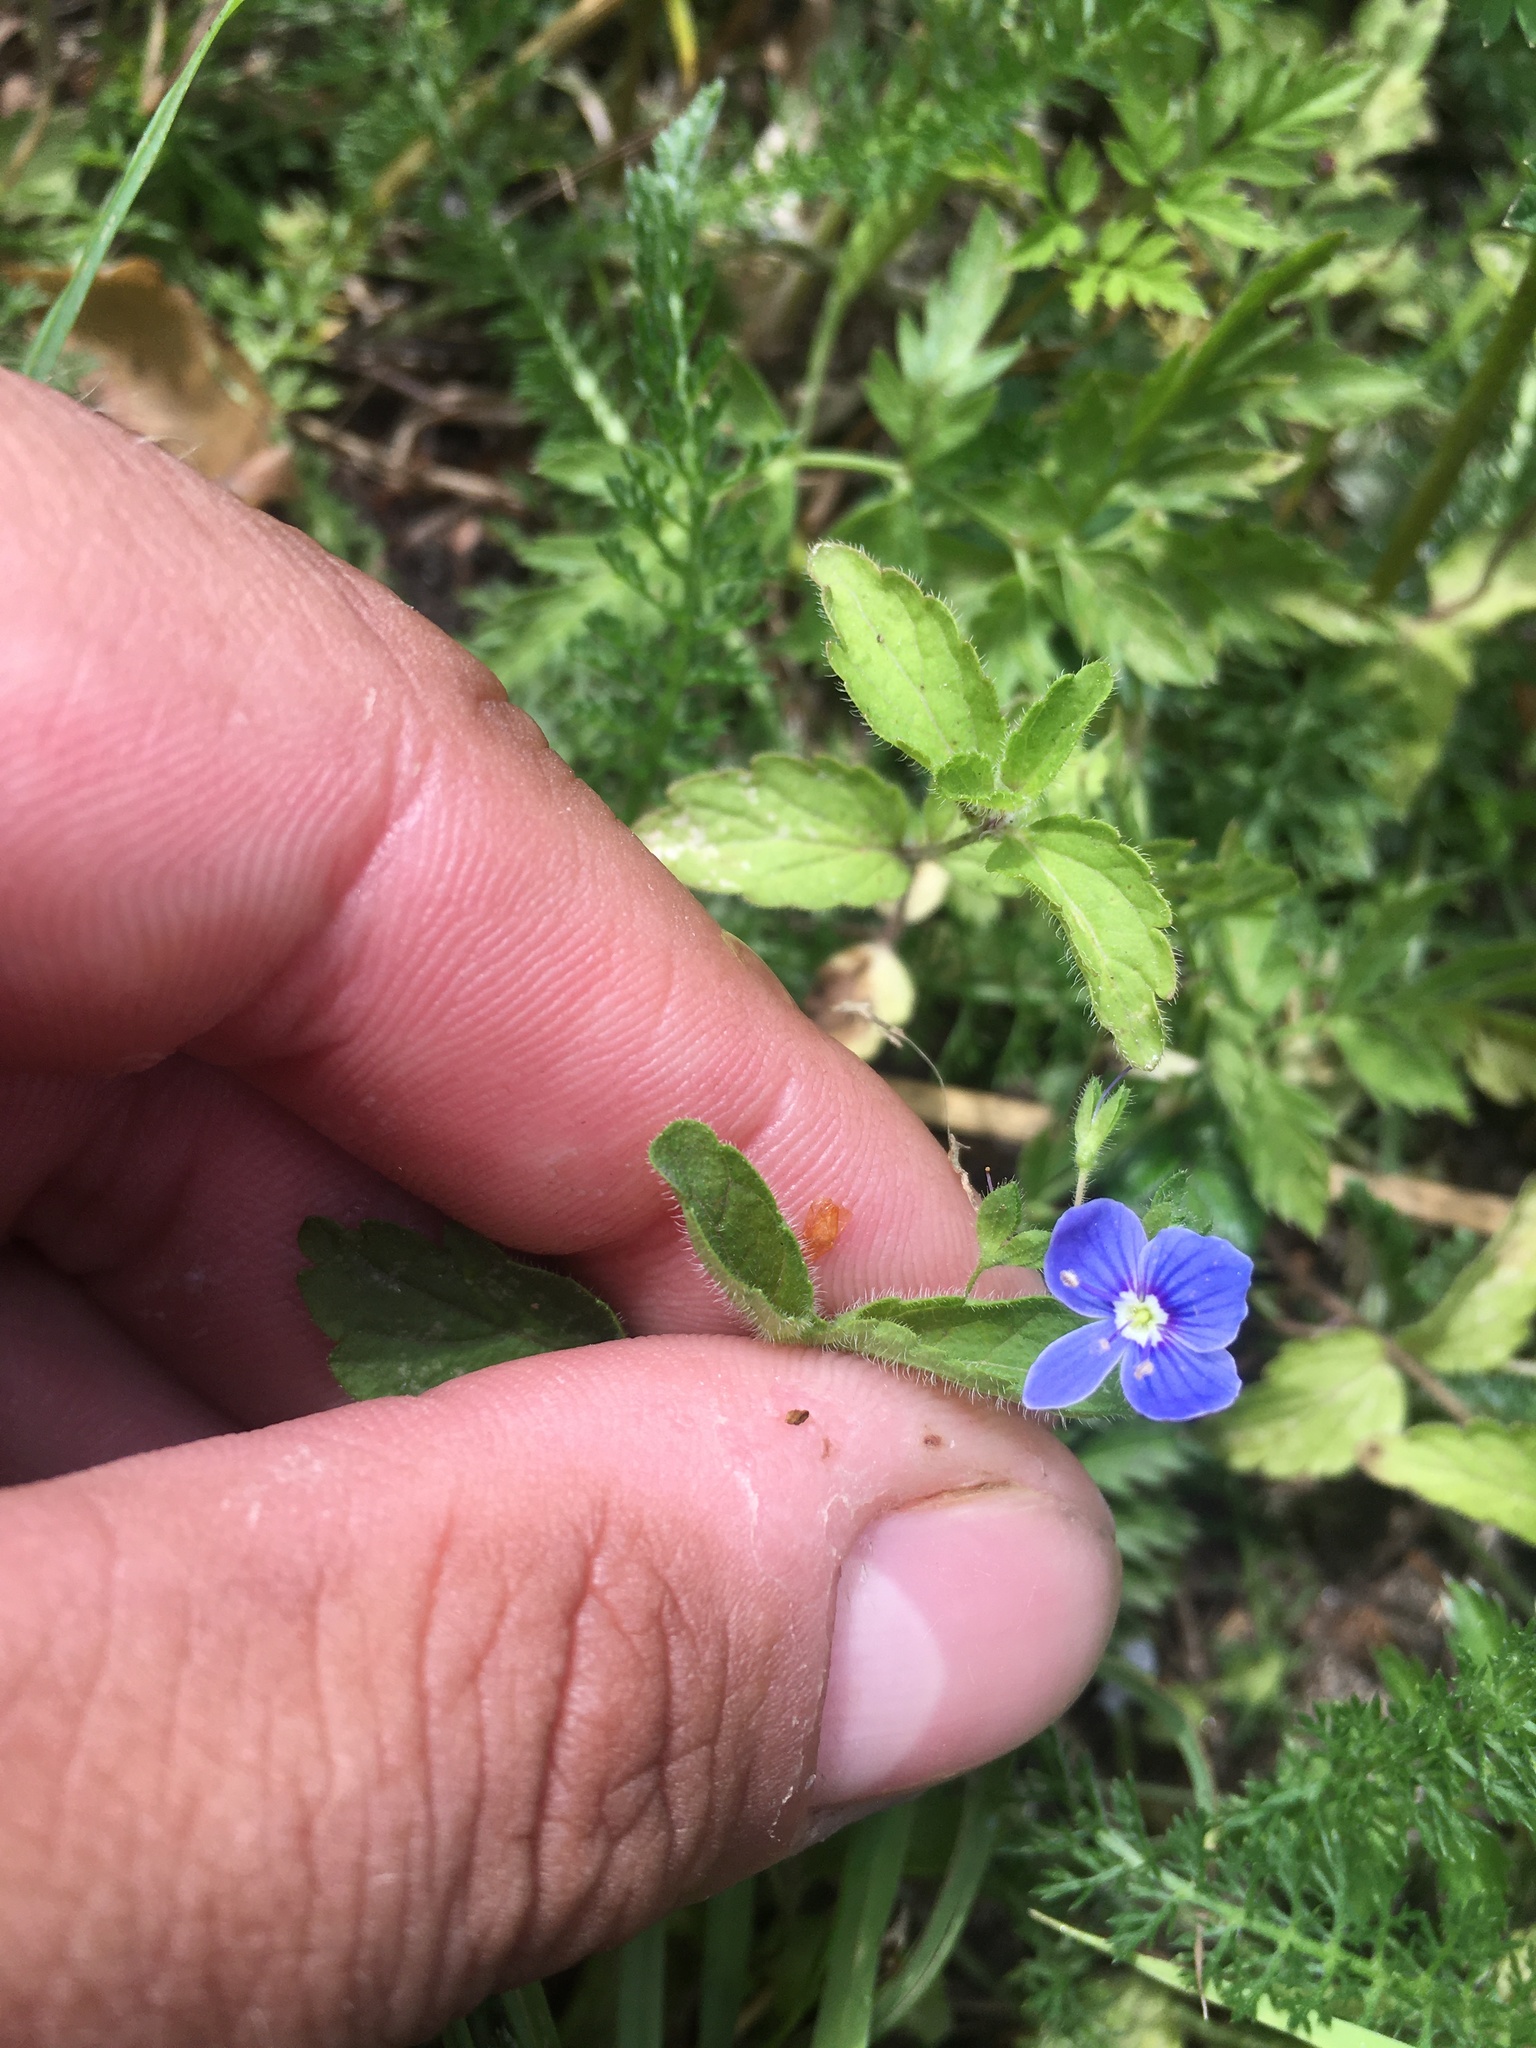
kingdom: Plantae
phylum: Tracheophyta
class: Magnoliopsida
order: Lamiales
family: Plantaginaceae
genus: Veronica
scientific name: Veronica chamaedrys
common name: Germander speedwell
